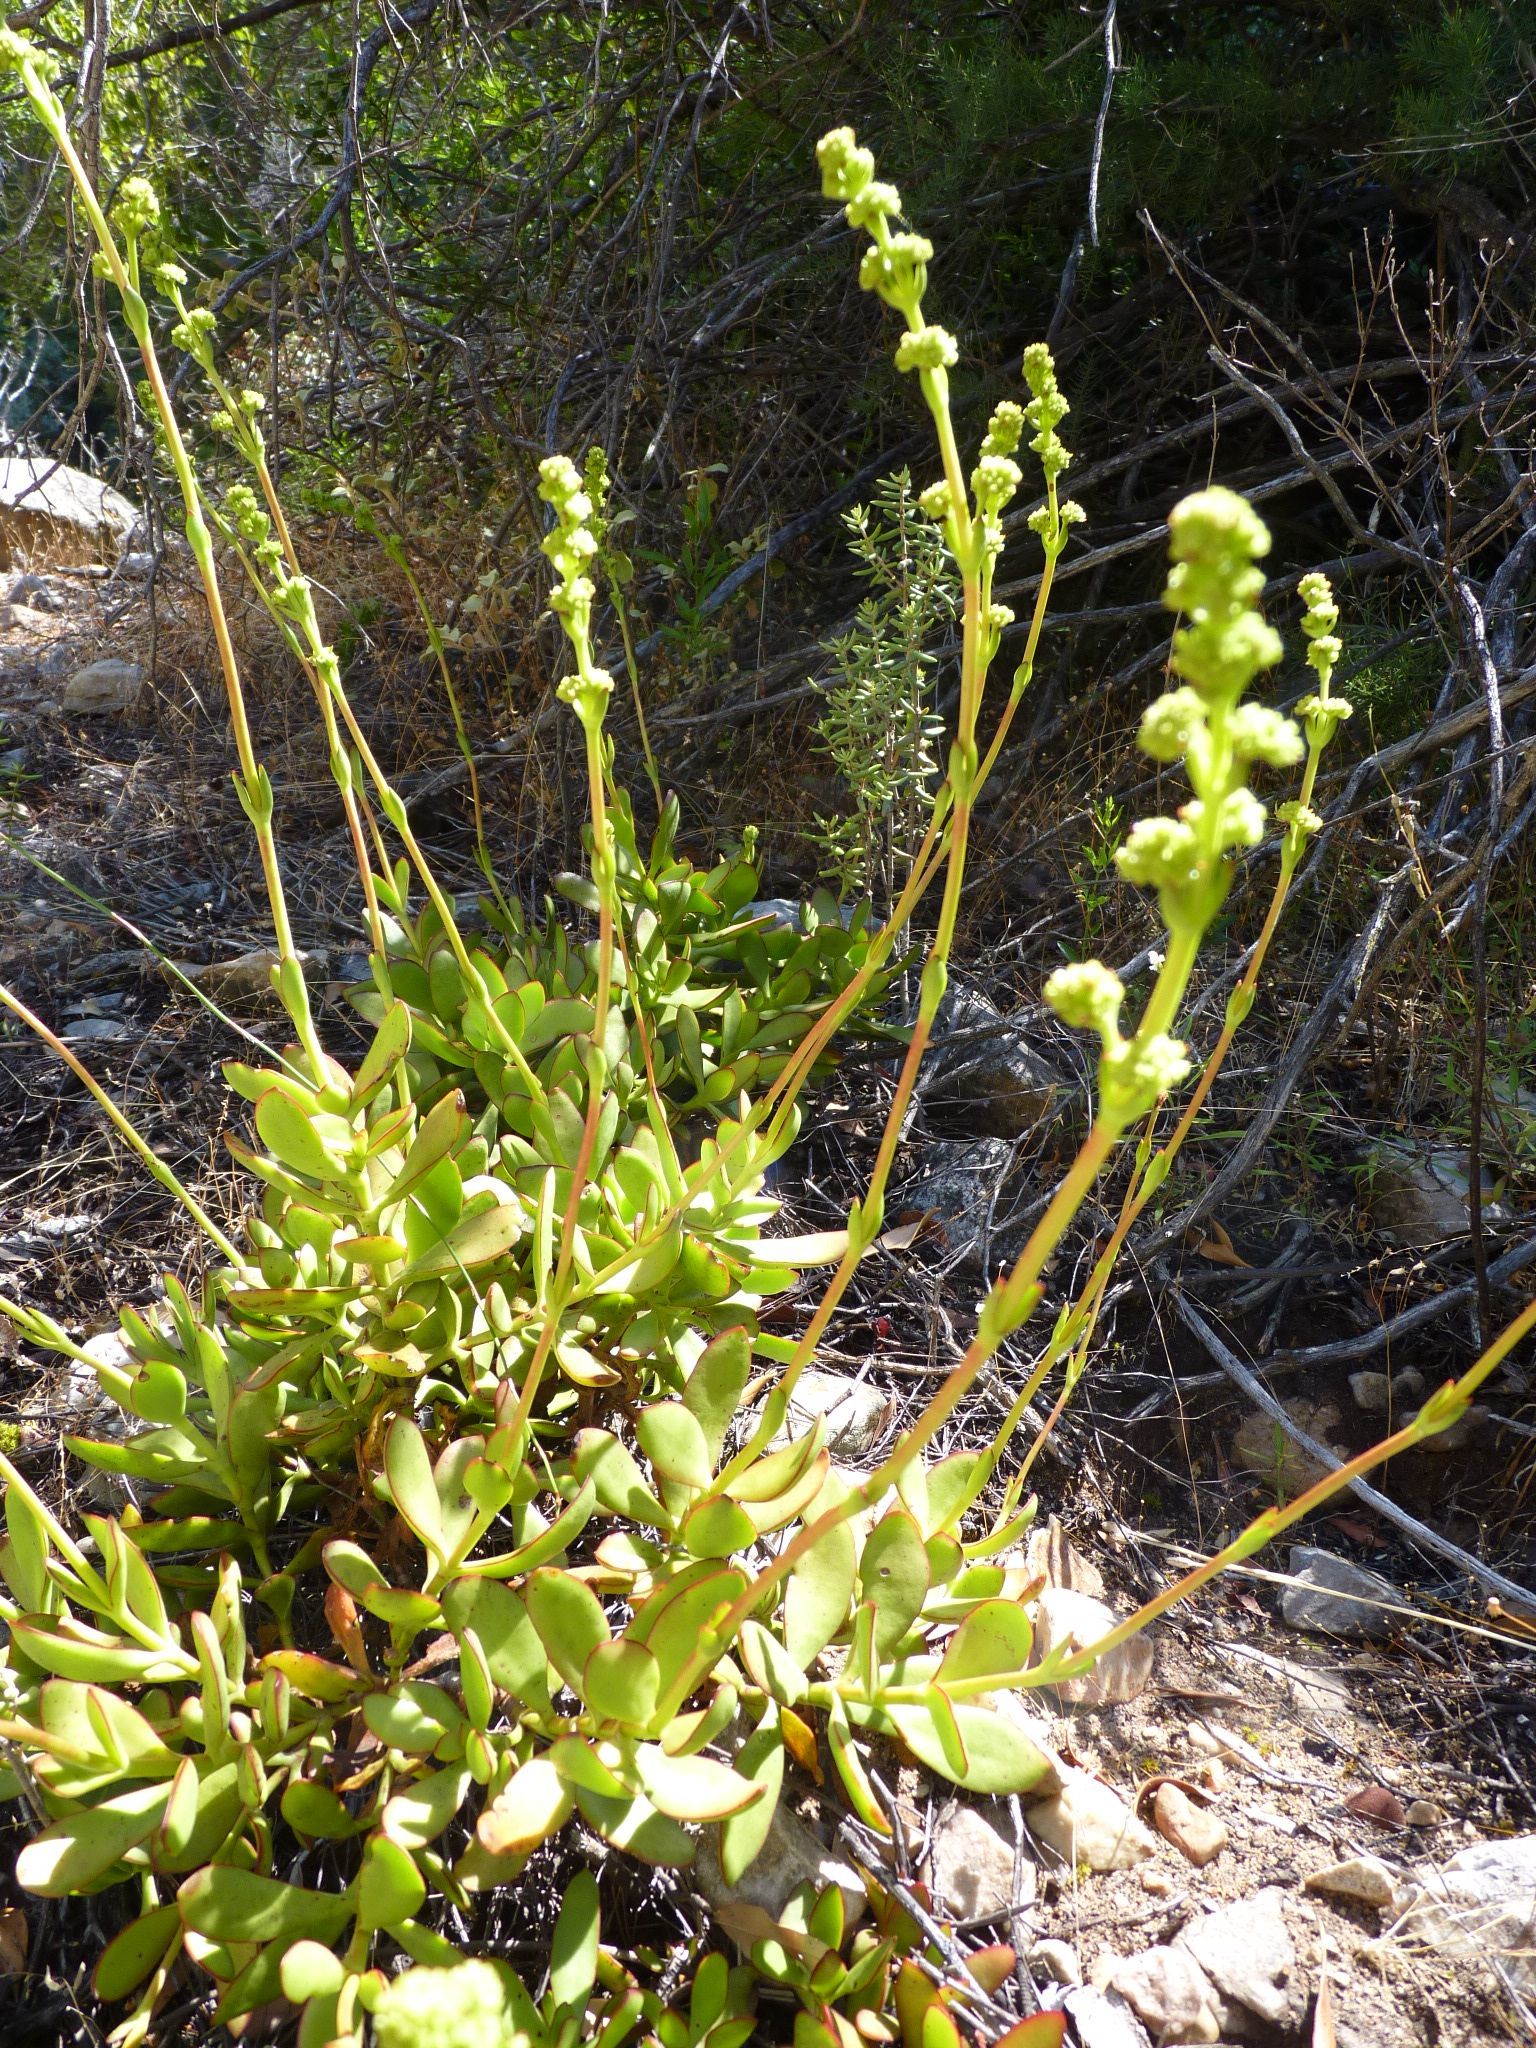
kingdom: Plantae
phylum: Tracheophyta
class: Magnoliopsida
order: Saxifragales
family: Crassulaceae
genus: Crassula
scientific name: Crassula cultrata
